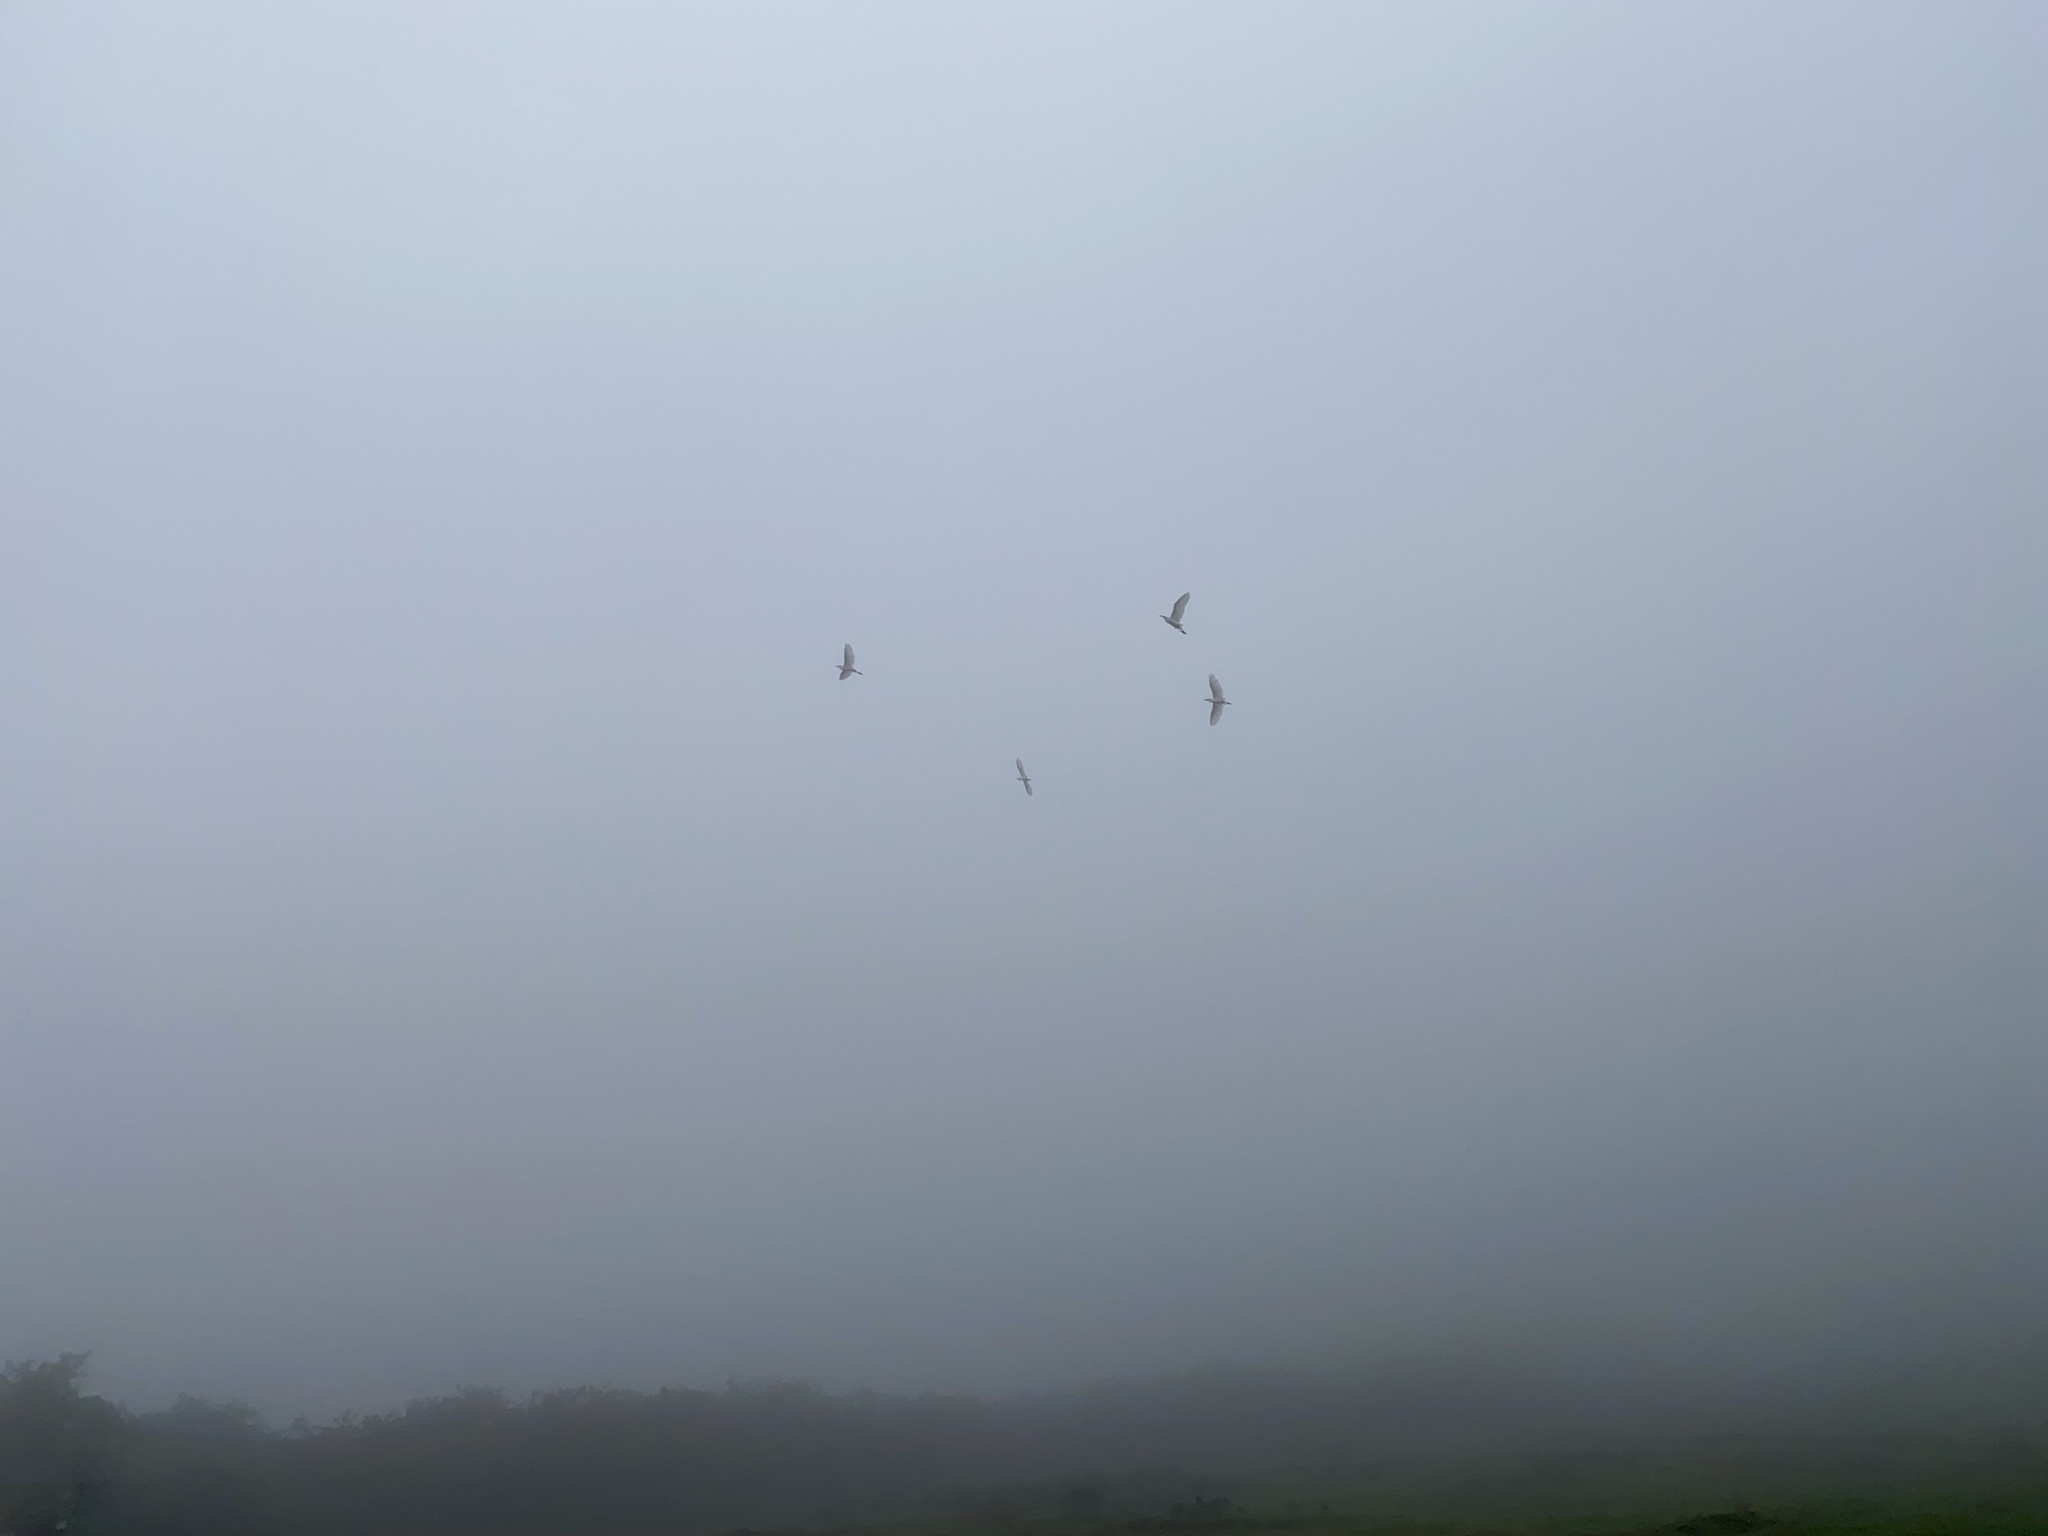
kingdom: Animalia
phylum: Chordata
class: Aves
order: Pelecaniformes
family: Ardeidae
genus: Bubulcus
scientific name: Bubulcus ibis
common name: Cattle egret
